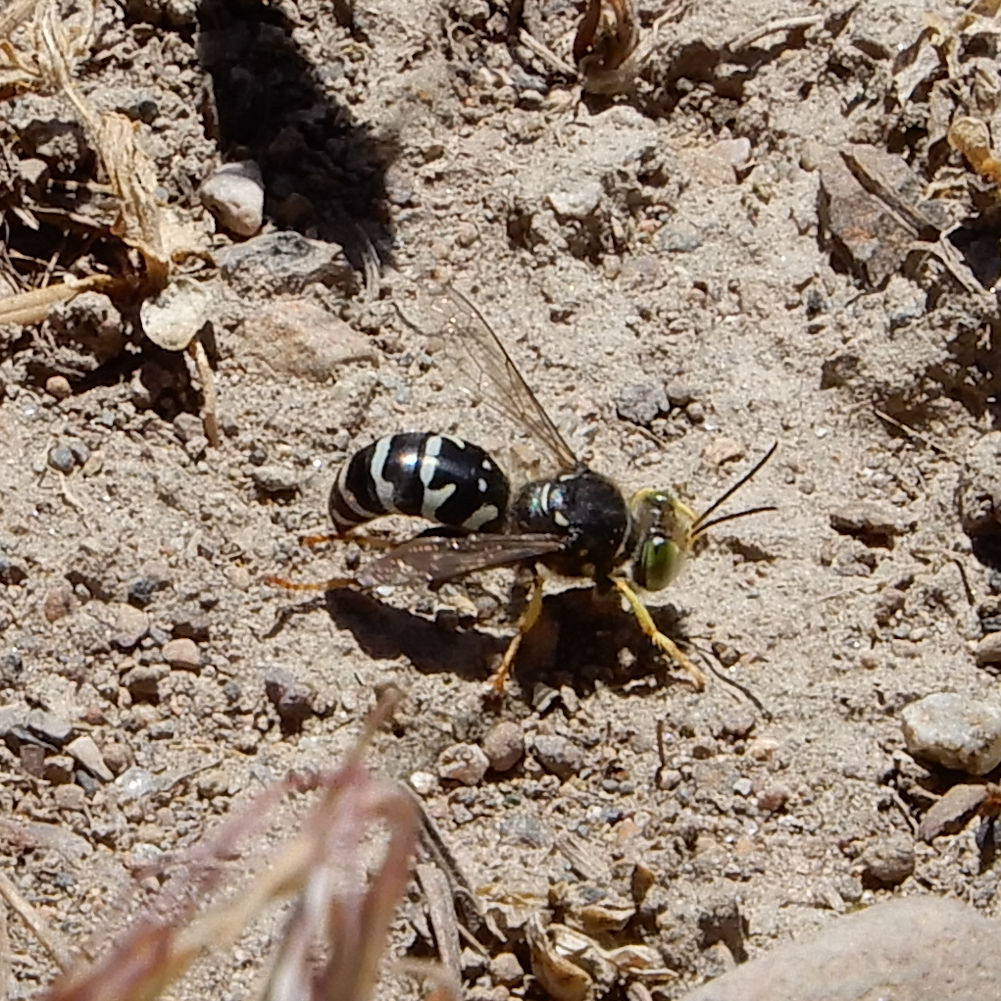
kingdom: Animalia
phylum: Arthropoda
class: Insecta
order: Hymenoptera
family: Crabronidae
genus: Steniolia
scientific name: Steniolia obliqua
